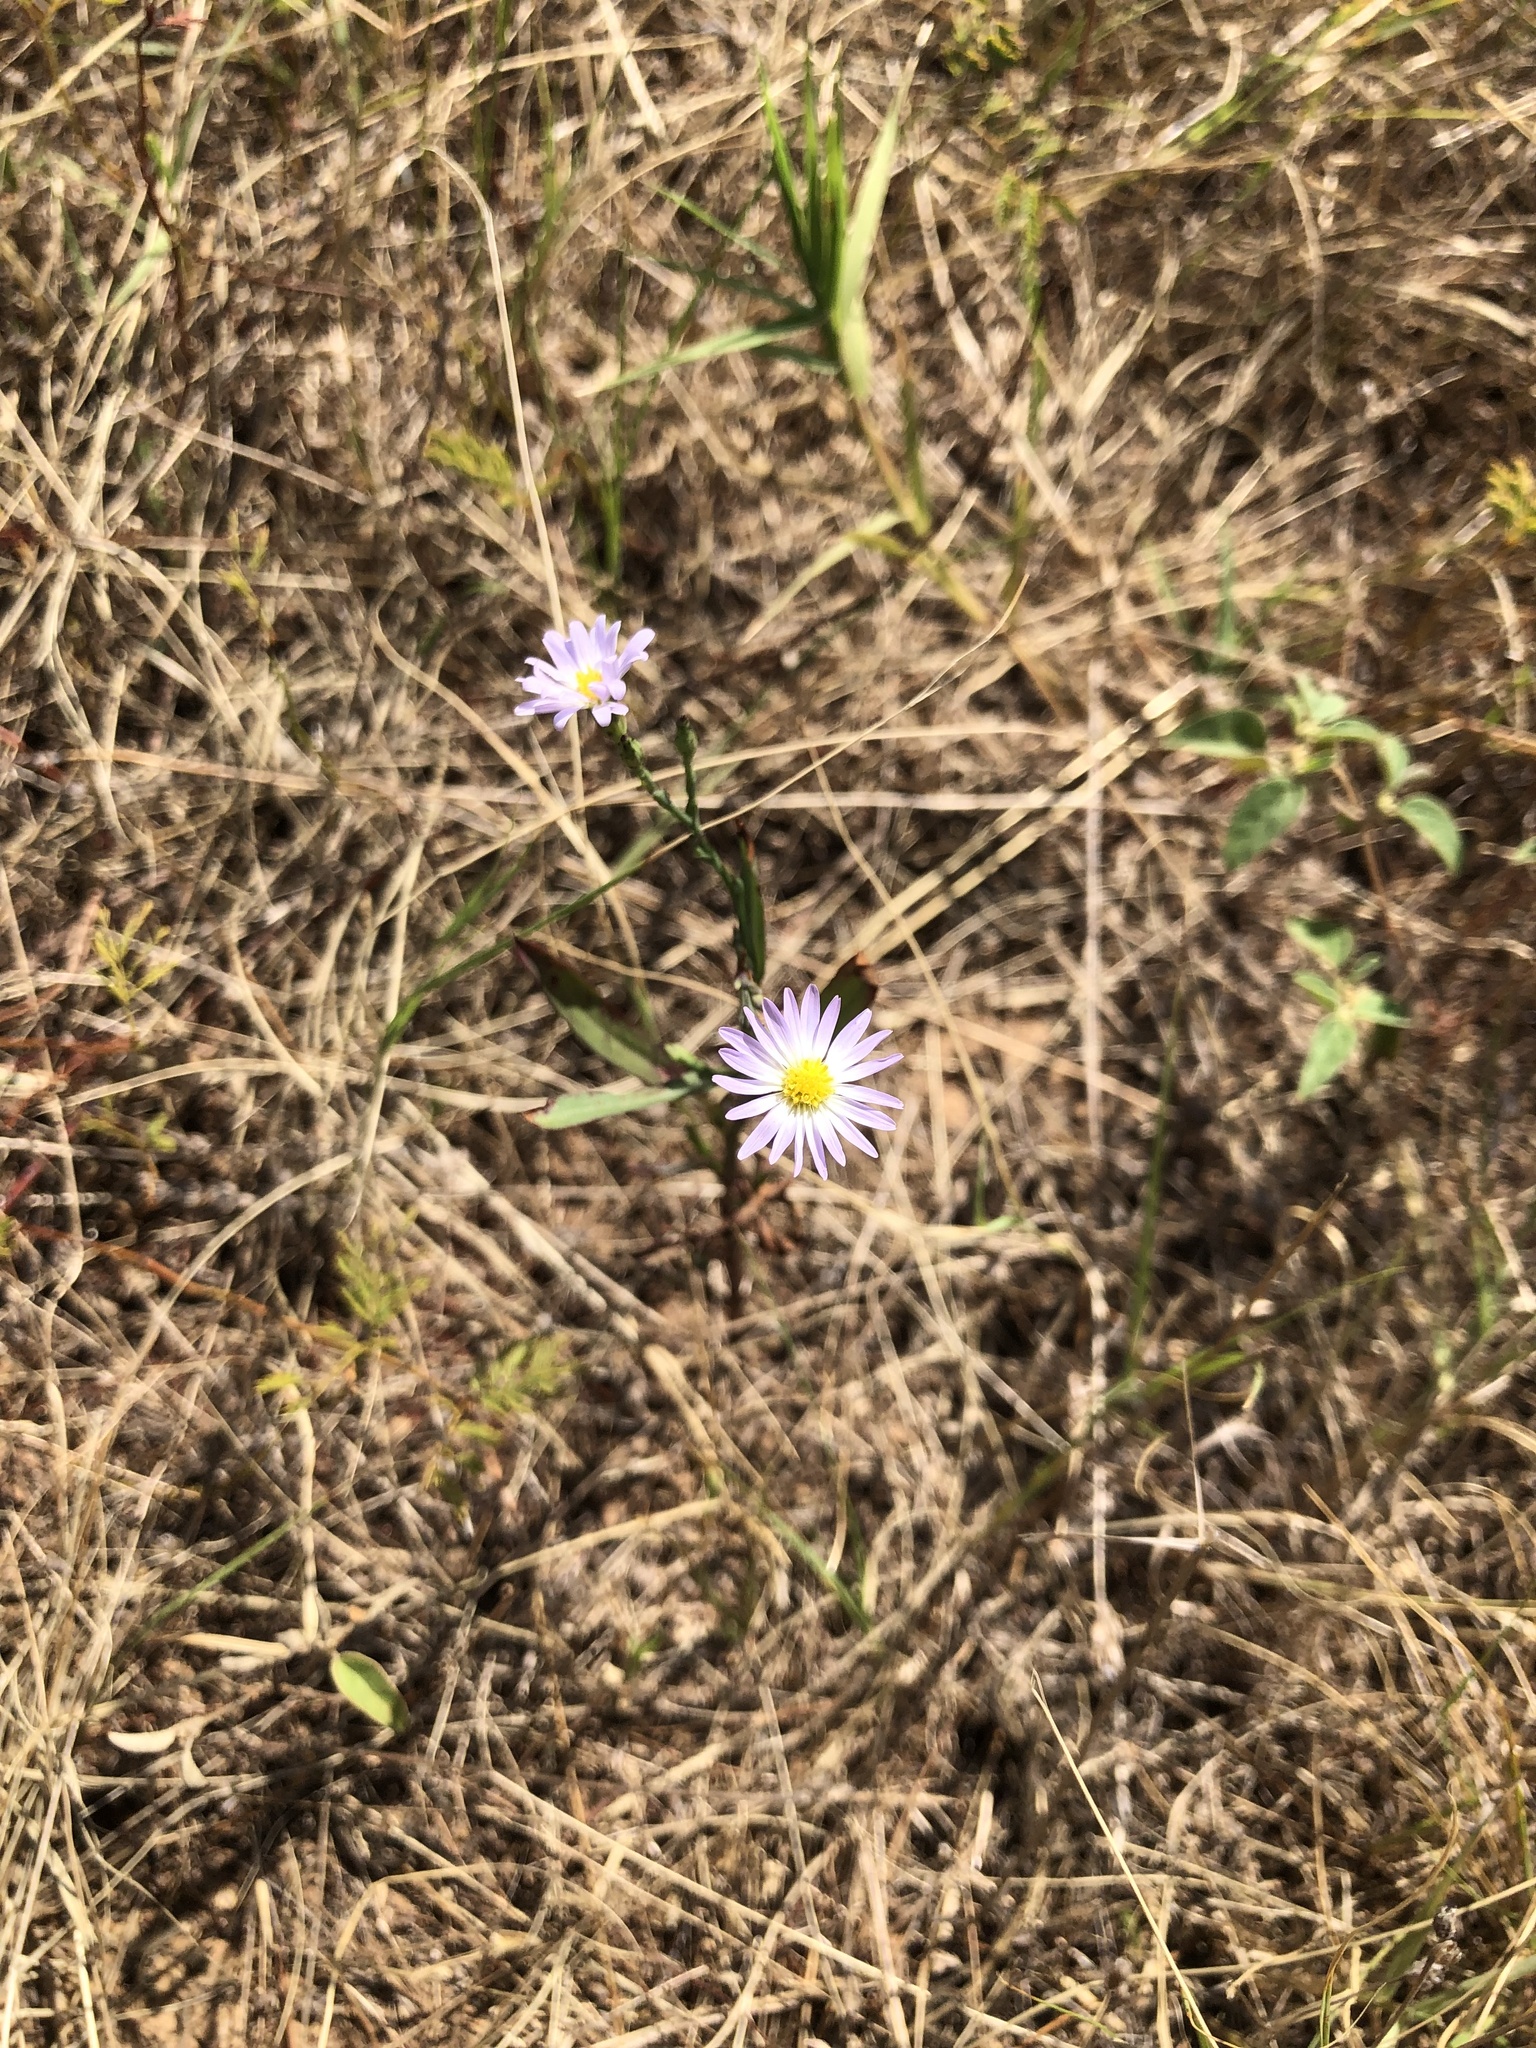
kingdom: Plantae
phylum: Tracheophyta
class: Magnoliopsida
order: Asterales
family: Asteraceae
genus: Symphyotrichum
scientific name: Symphyotrichum divaricatum
